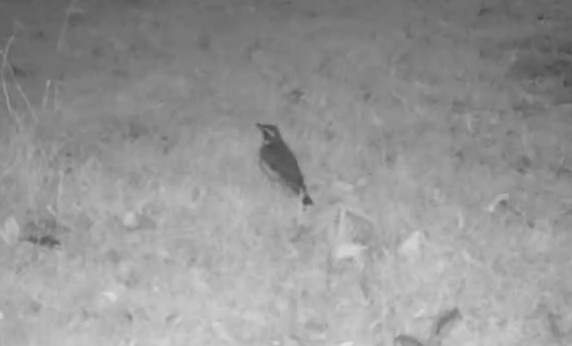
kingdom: Animalia
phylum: Chordata
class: Aves
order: Passeriformes
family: Turdidae
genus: Turdus
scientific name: Turdus iliacus
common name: Redwing
